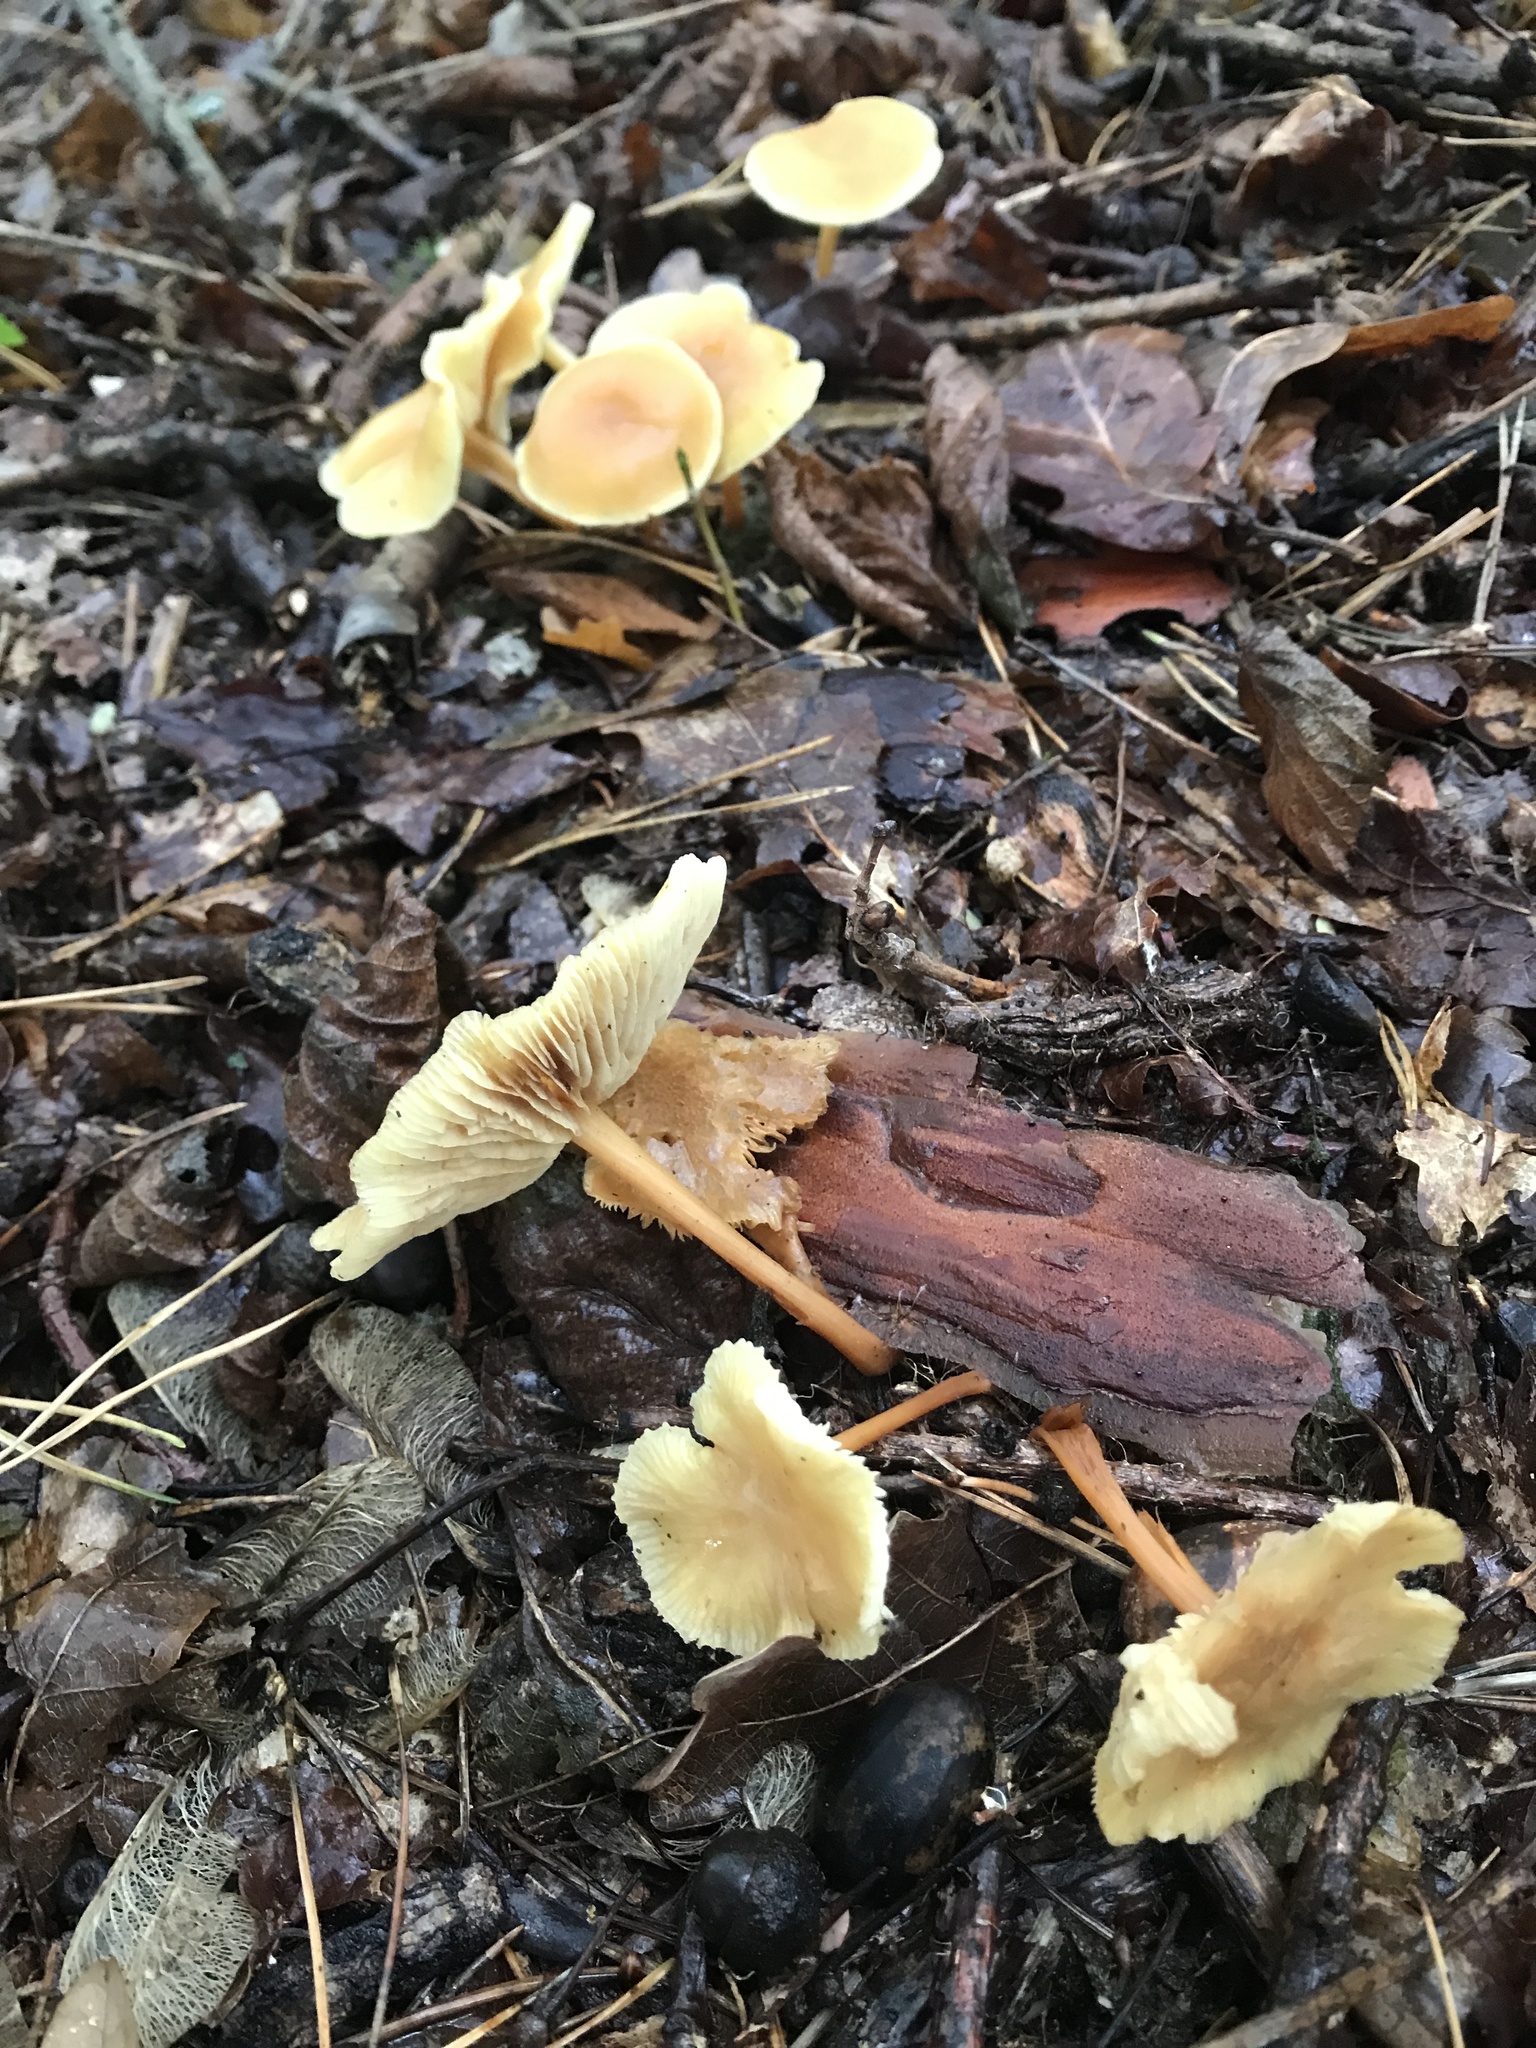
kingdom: Fungi
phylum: Basidiomycota
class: Agaricomycetes
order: Agaricales
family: Omphalotaceae
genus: Gymnopus
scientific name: Gymnopus dryophilus
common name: Penny top
